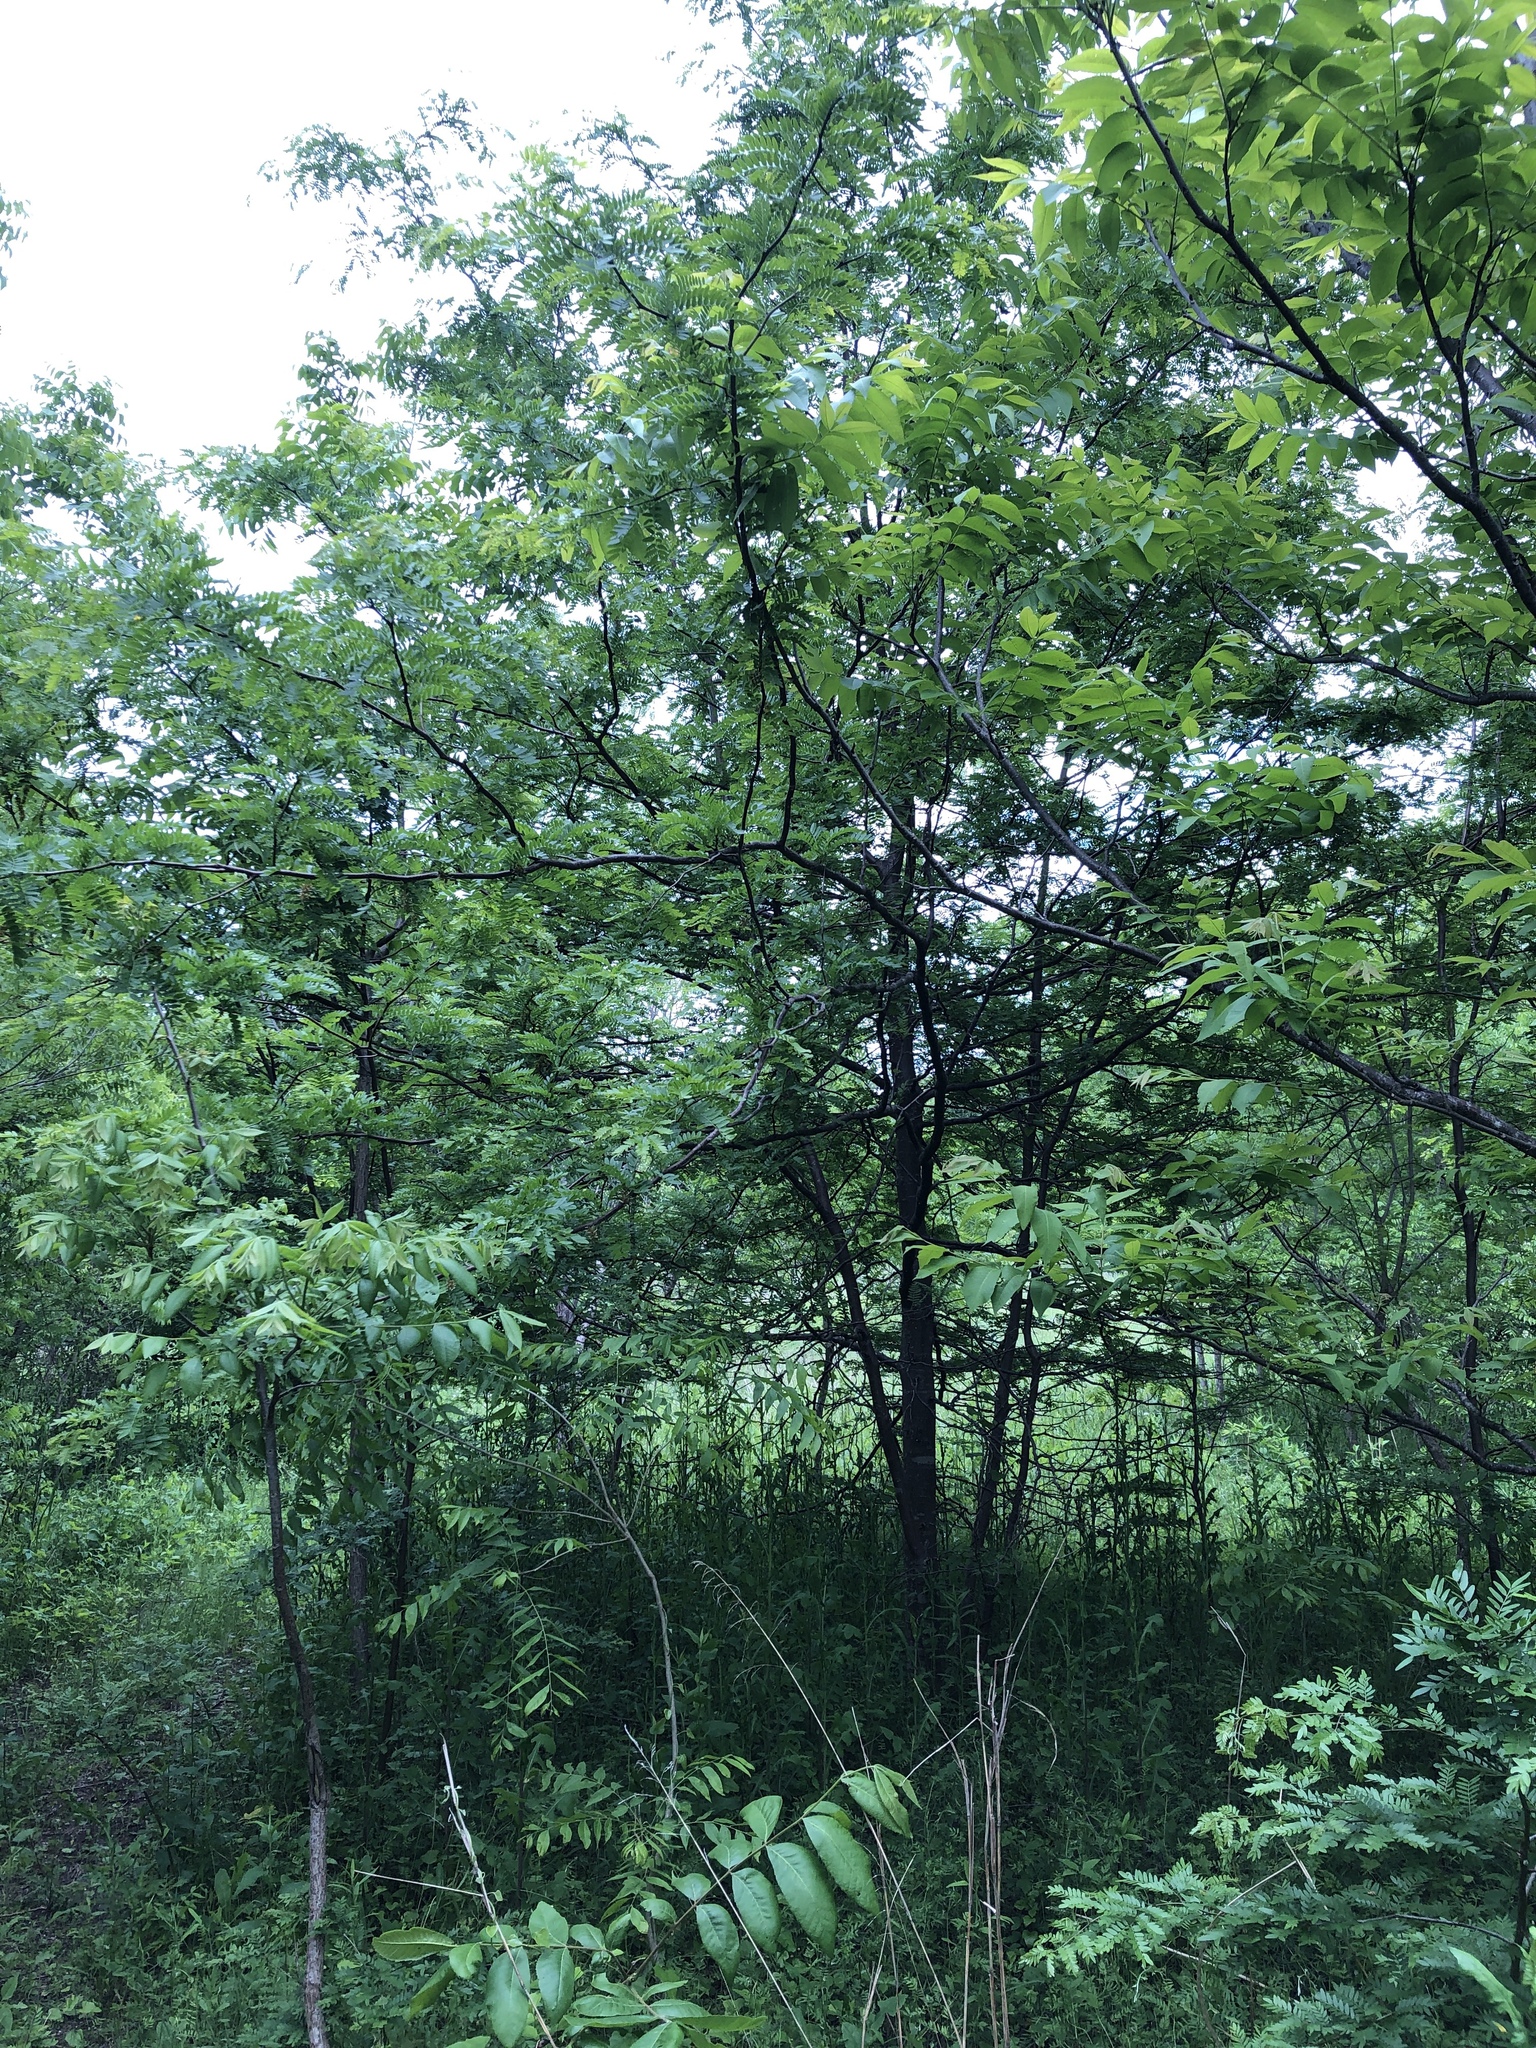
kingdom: Plantae
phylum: Tracheophyta
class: Magnoliopsida
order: Fabales
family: Fabaceae
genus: Gleditsia
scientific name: Gleditsia triacanthos
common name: Common honeylocust
